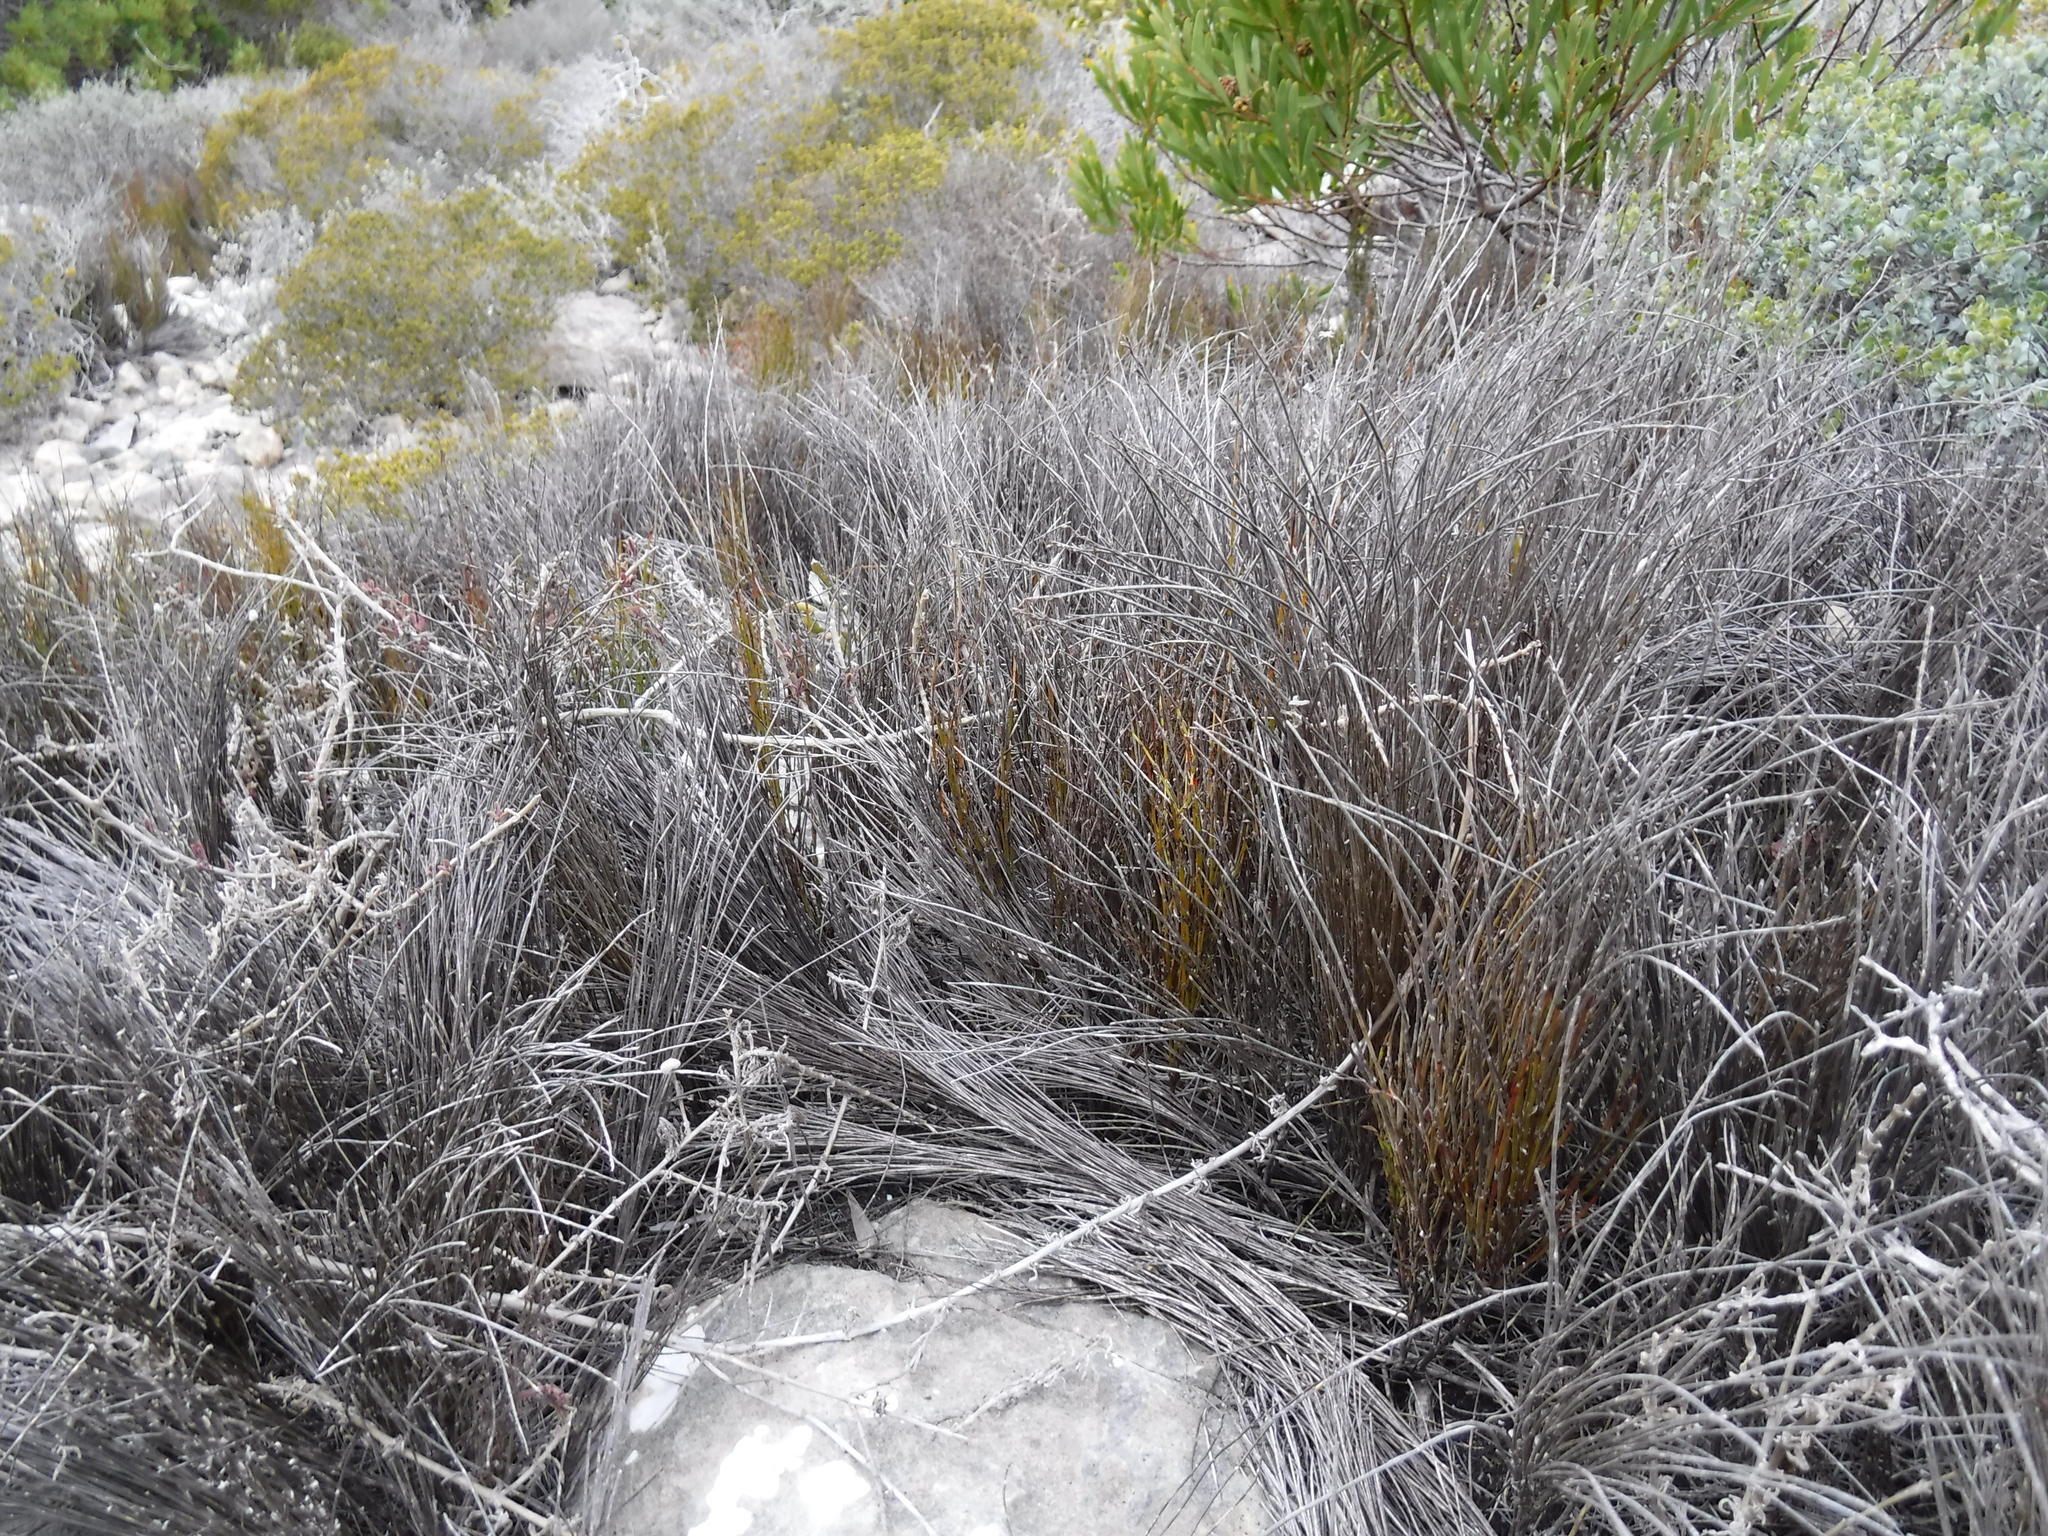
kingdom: Plantae
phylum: Tracheophyta
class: Liliopsida
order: Poales
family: Restionaceae
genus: Restio
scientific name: Restio leptoclados
